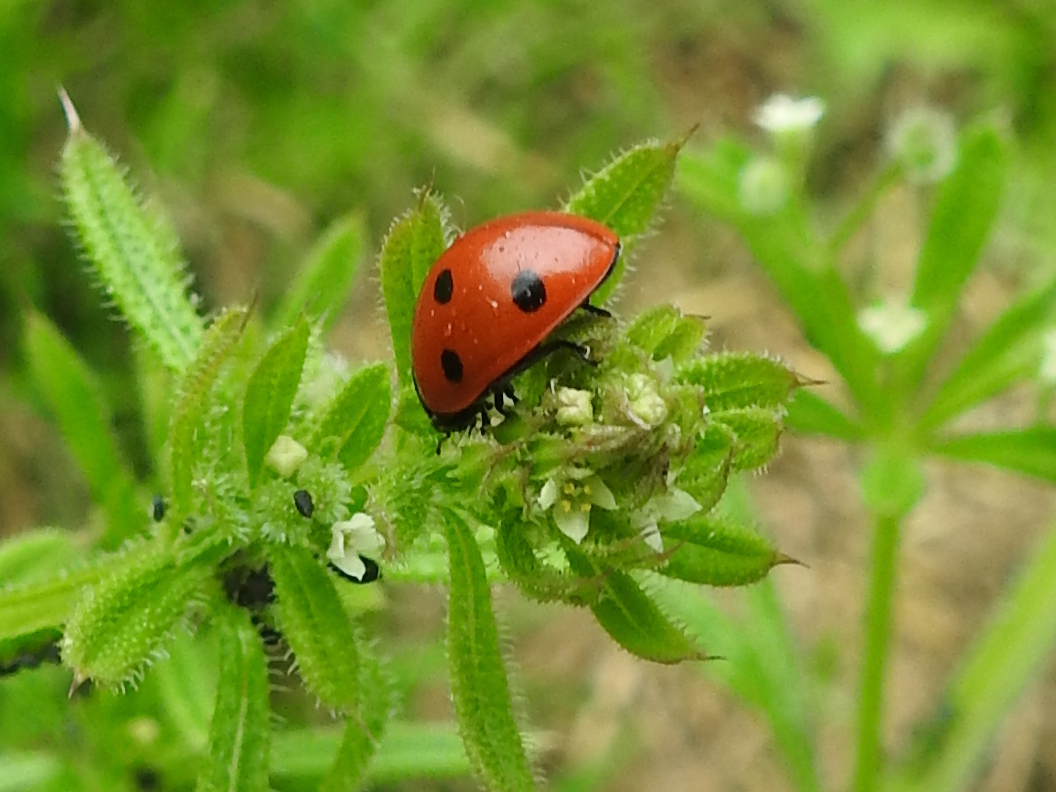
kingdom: Animalia
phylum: Arthropoda
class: Insecta
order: Coleoptera
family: Coccinellidae
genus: Coccinella
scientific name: Coccinella septempunctata
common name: Sevenspotted lady beetle
